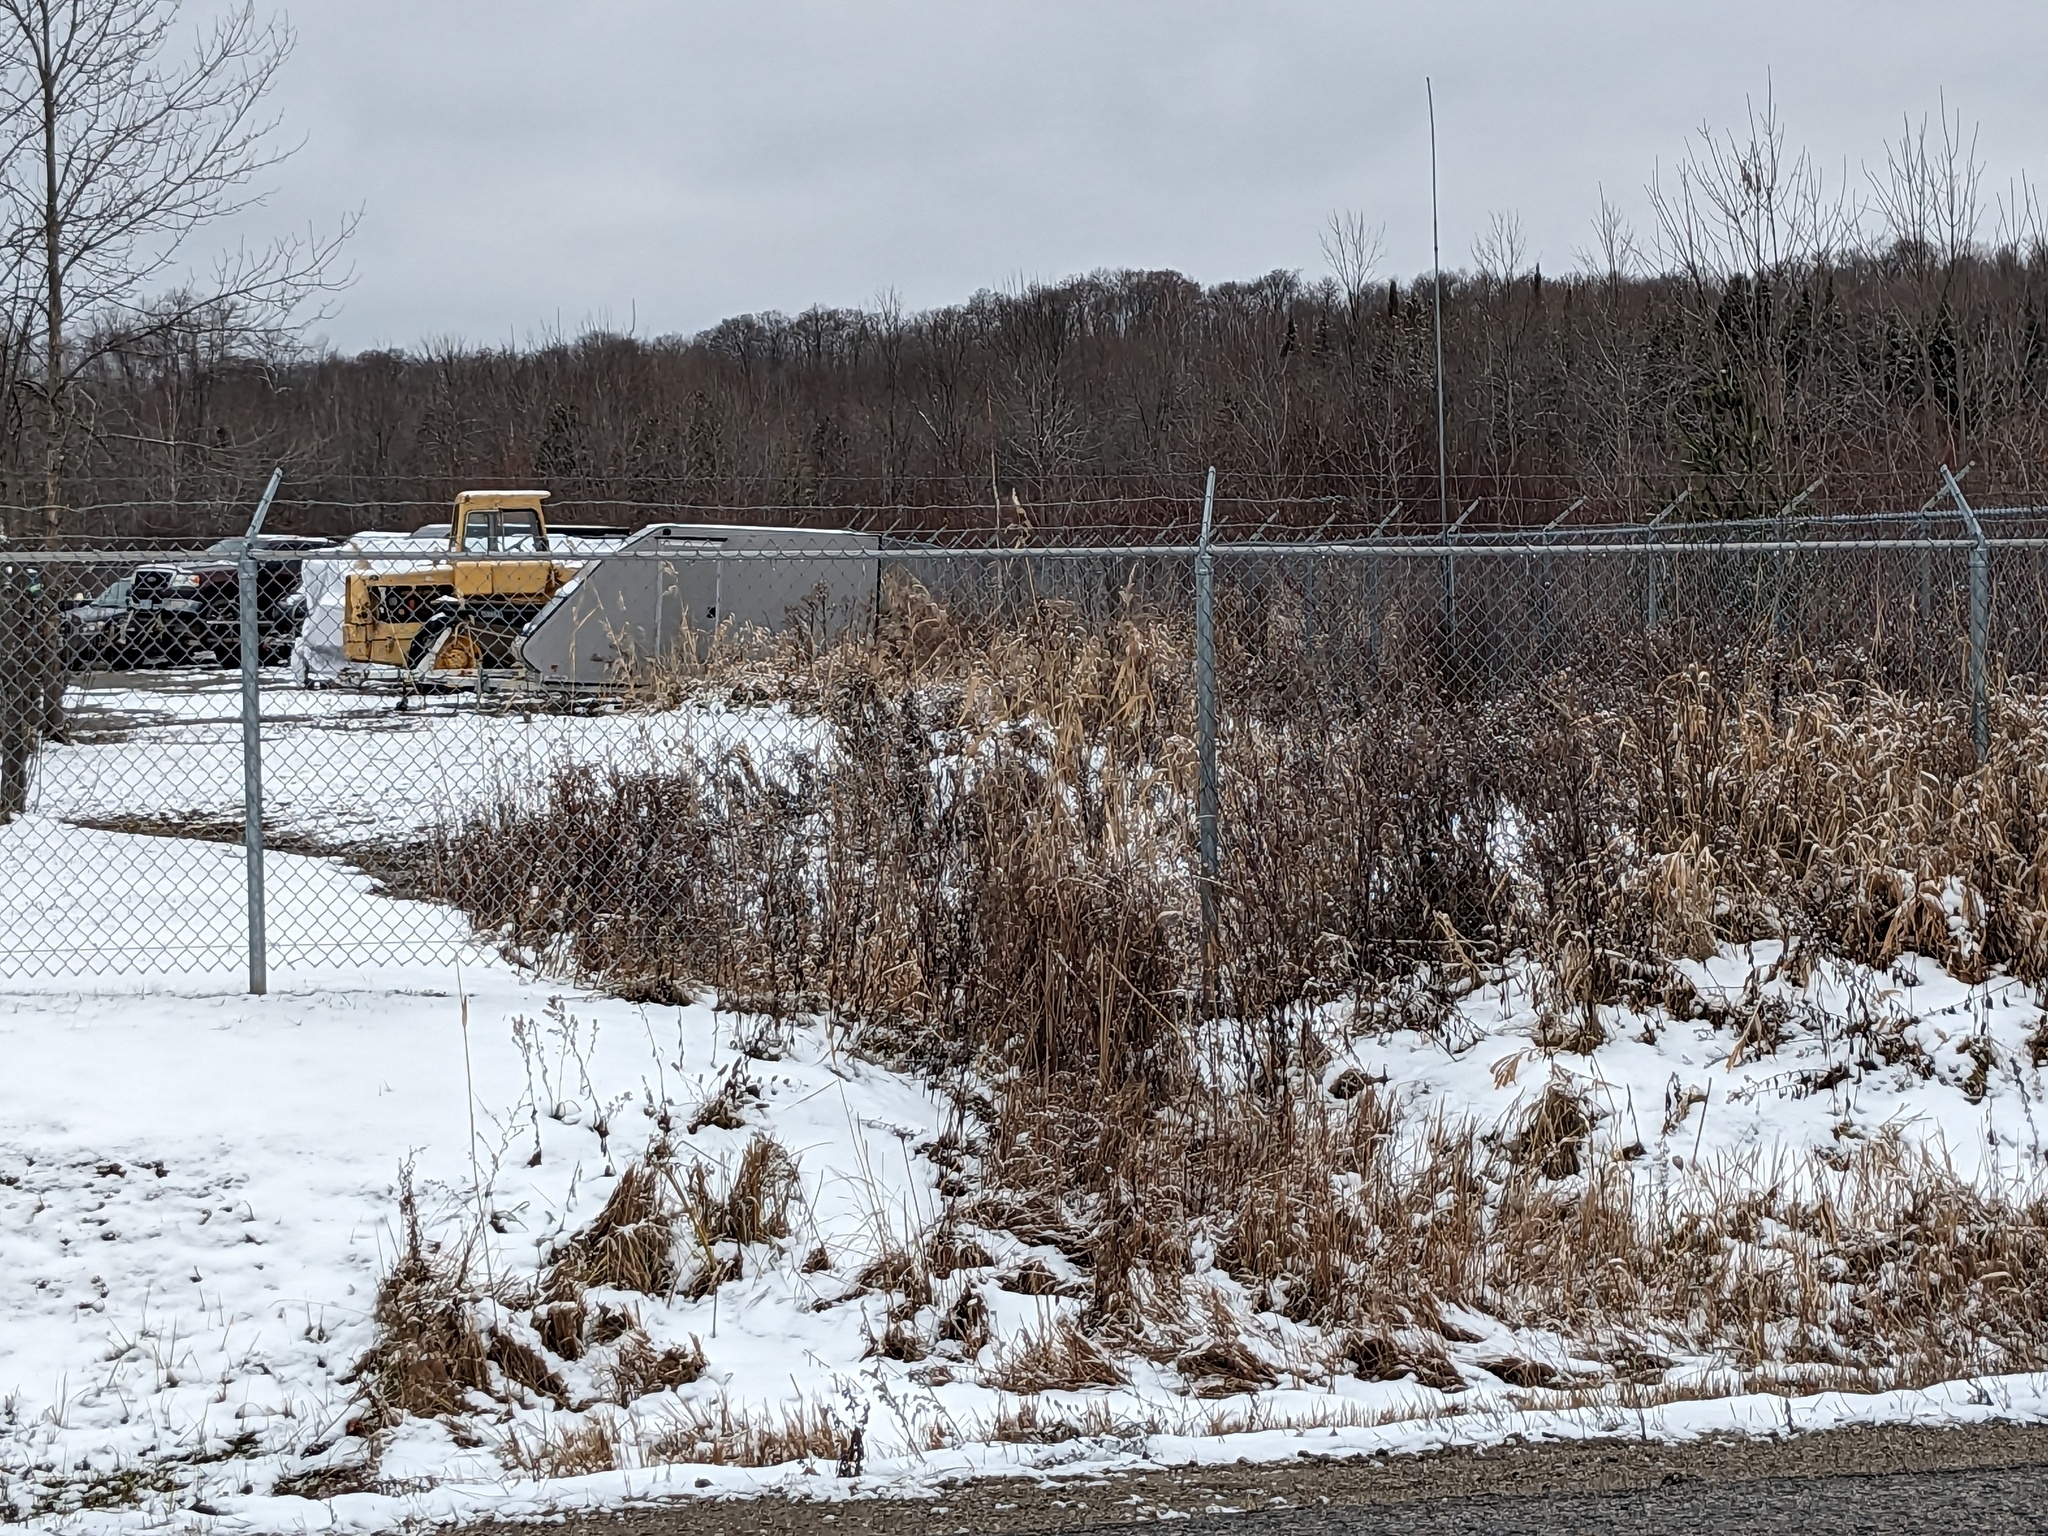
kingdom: Plantae
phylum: Tracheophyta
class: Liliopsida
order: Poales
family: Poaceae
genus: Phragmites
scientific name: Phragmites australis
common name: Common reed
